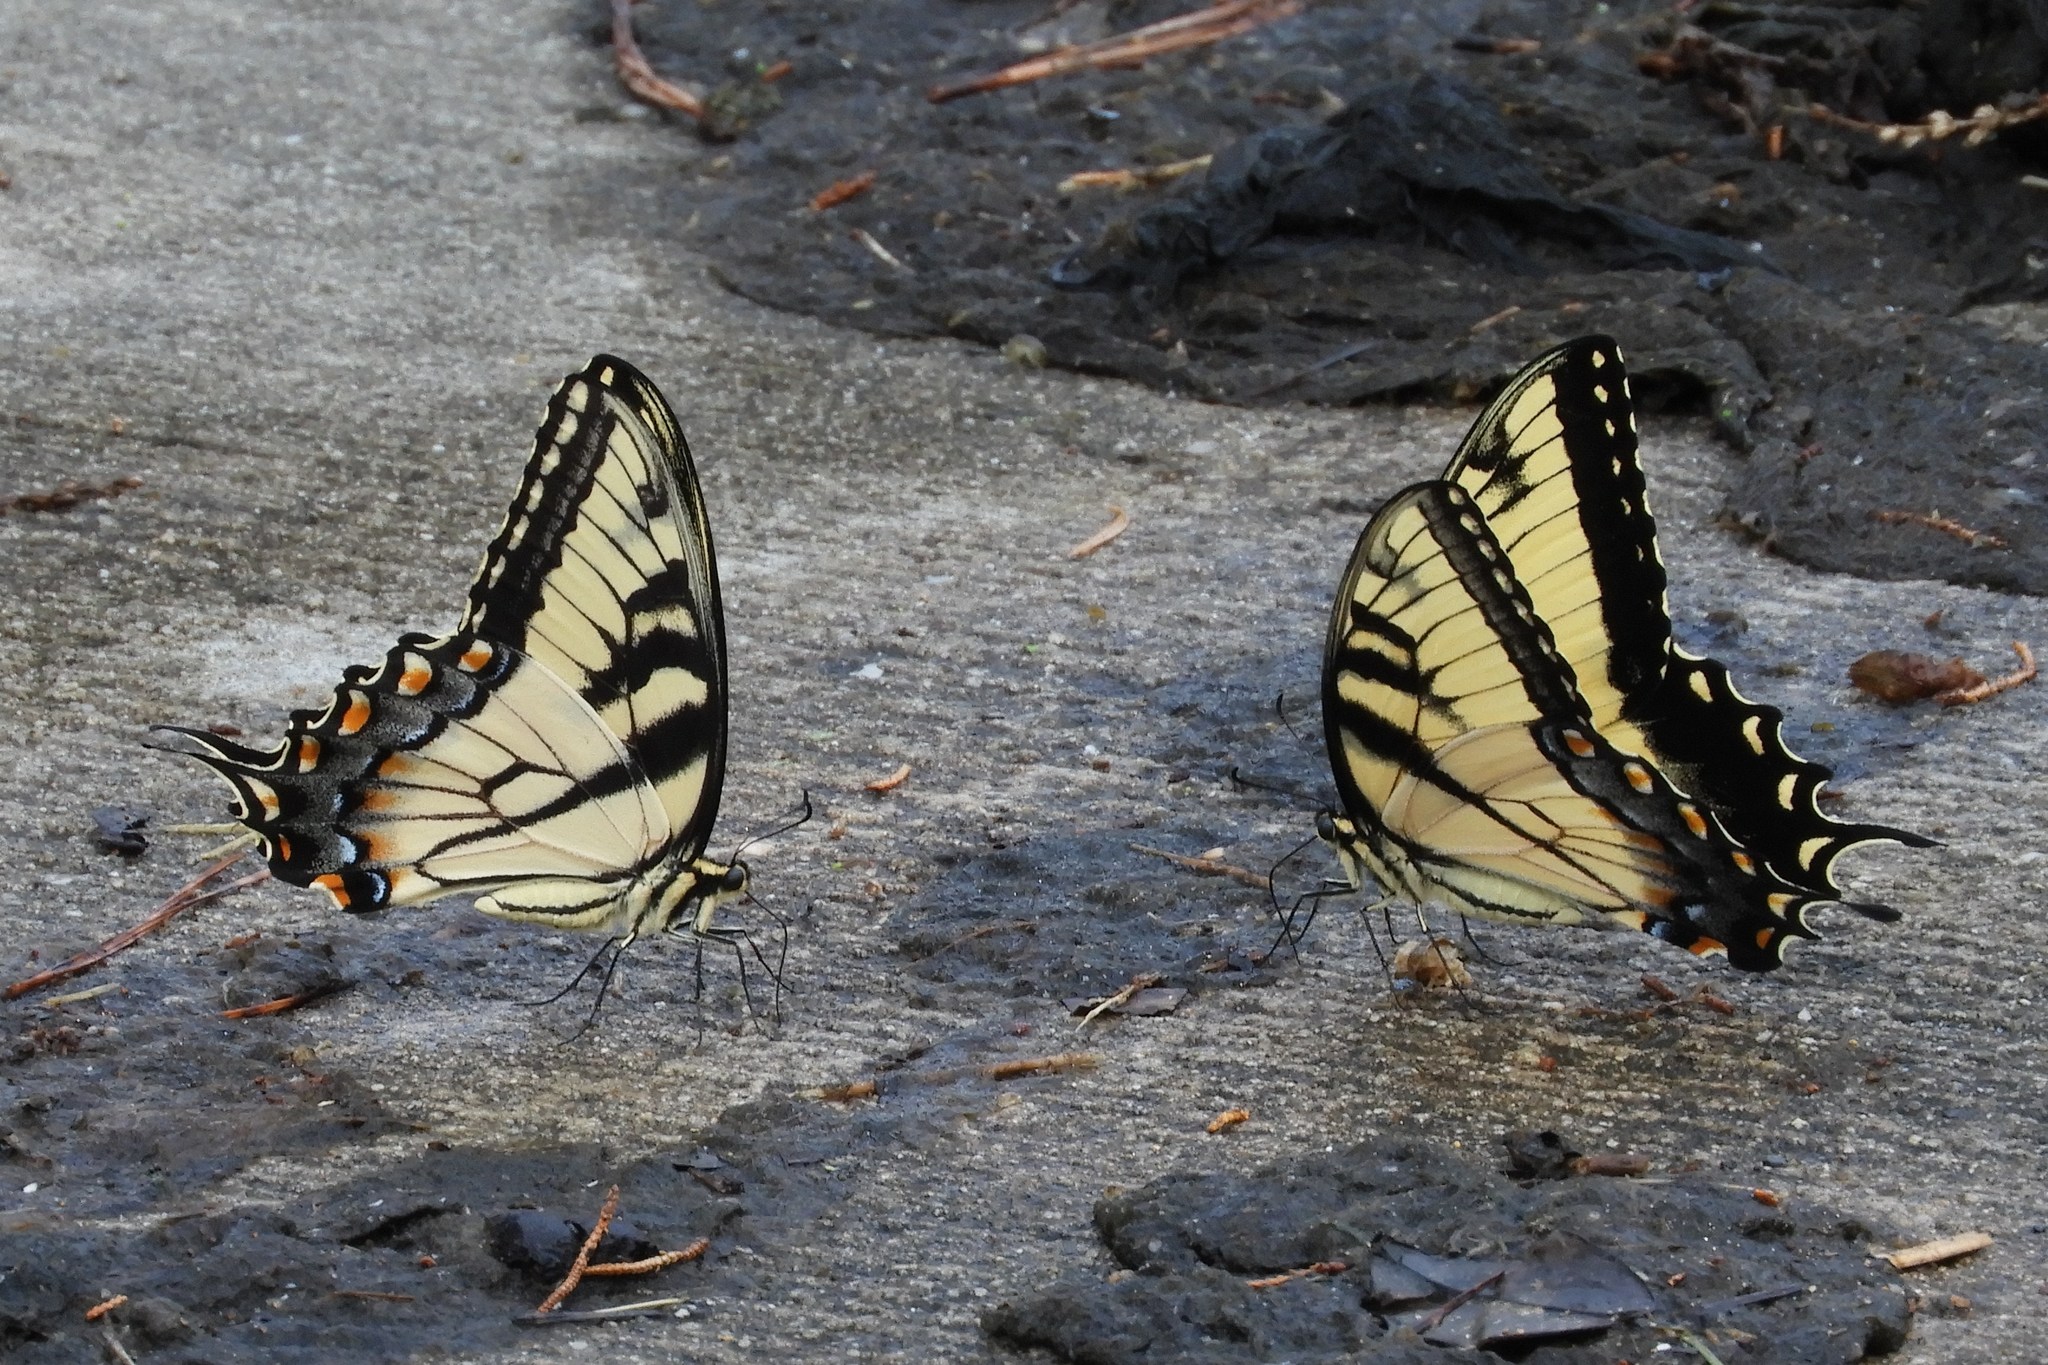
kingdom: Animalia
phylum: Arthropoda
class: Insecta
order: Lepidoptera
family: Papilionidae
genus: Papilio
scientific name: Papilio glaucus
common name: Tiger swallowtail
